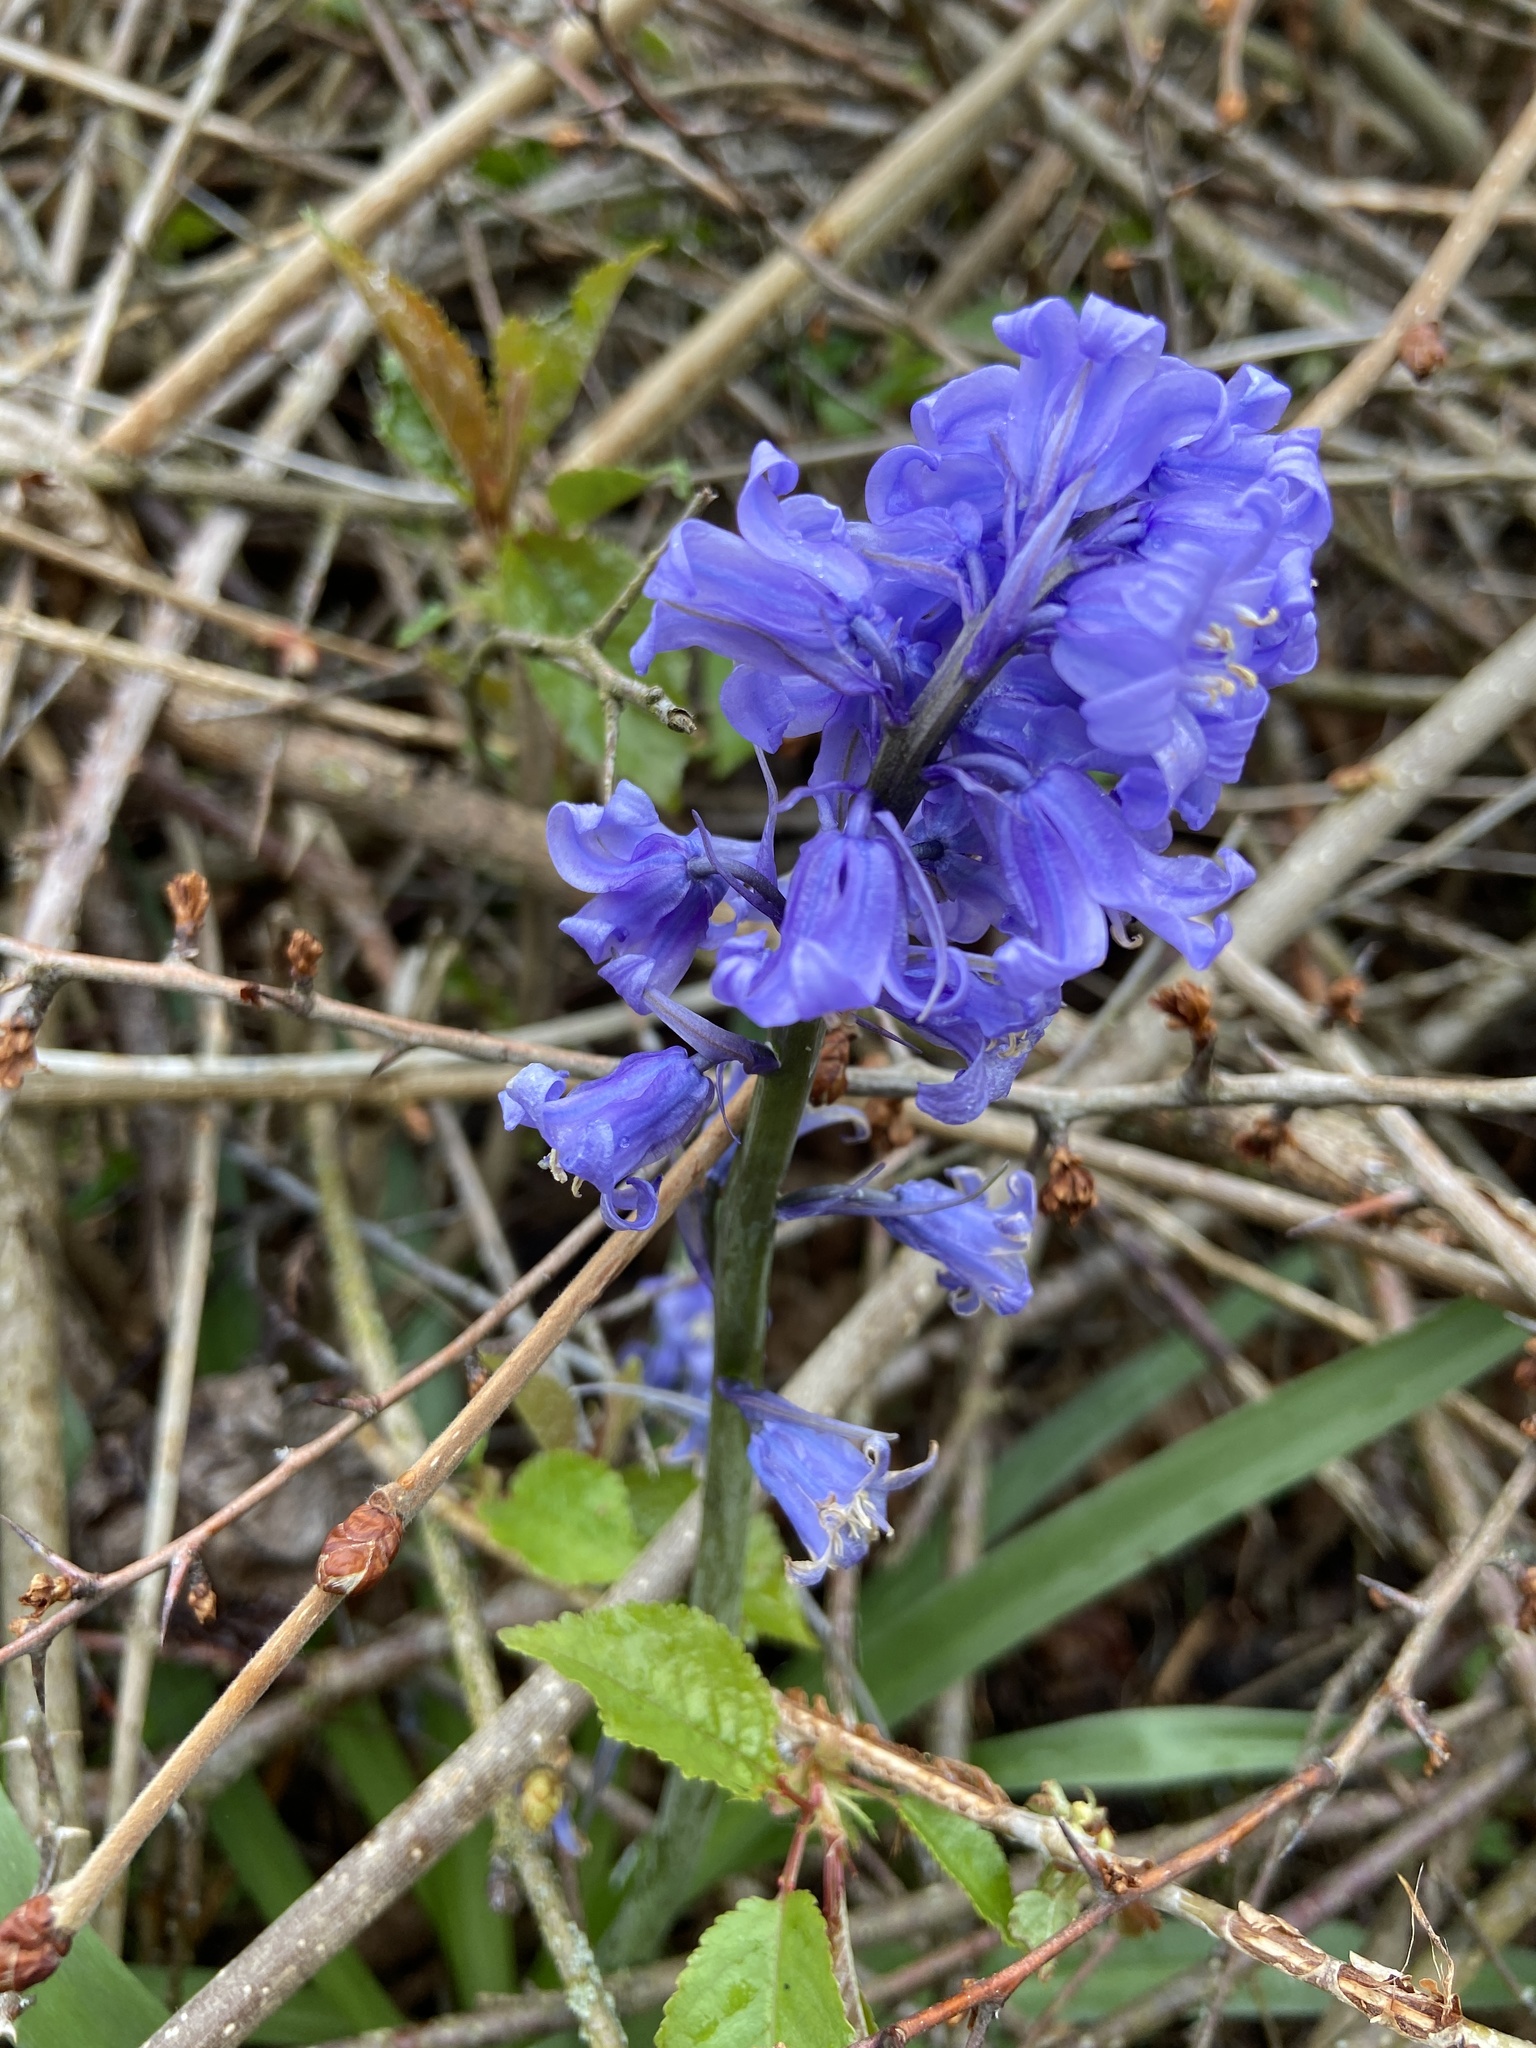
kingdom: Plantae
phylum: Tracheophyta
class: Liliopsida
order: Asparagales
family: Asparagaceae
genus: Hyacinthoides
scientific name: Hyacinthoides non-scripta
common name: Bluebell
